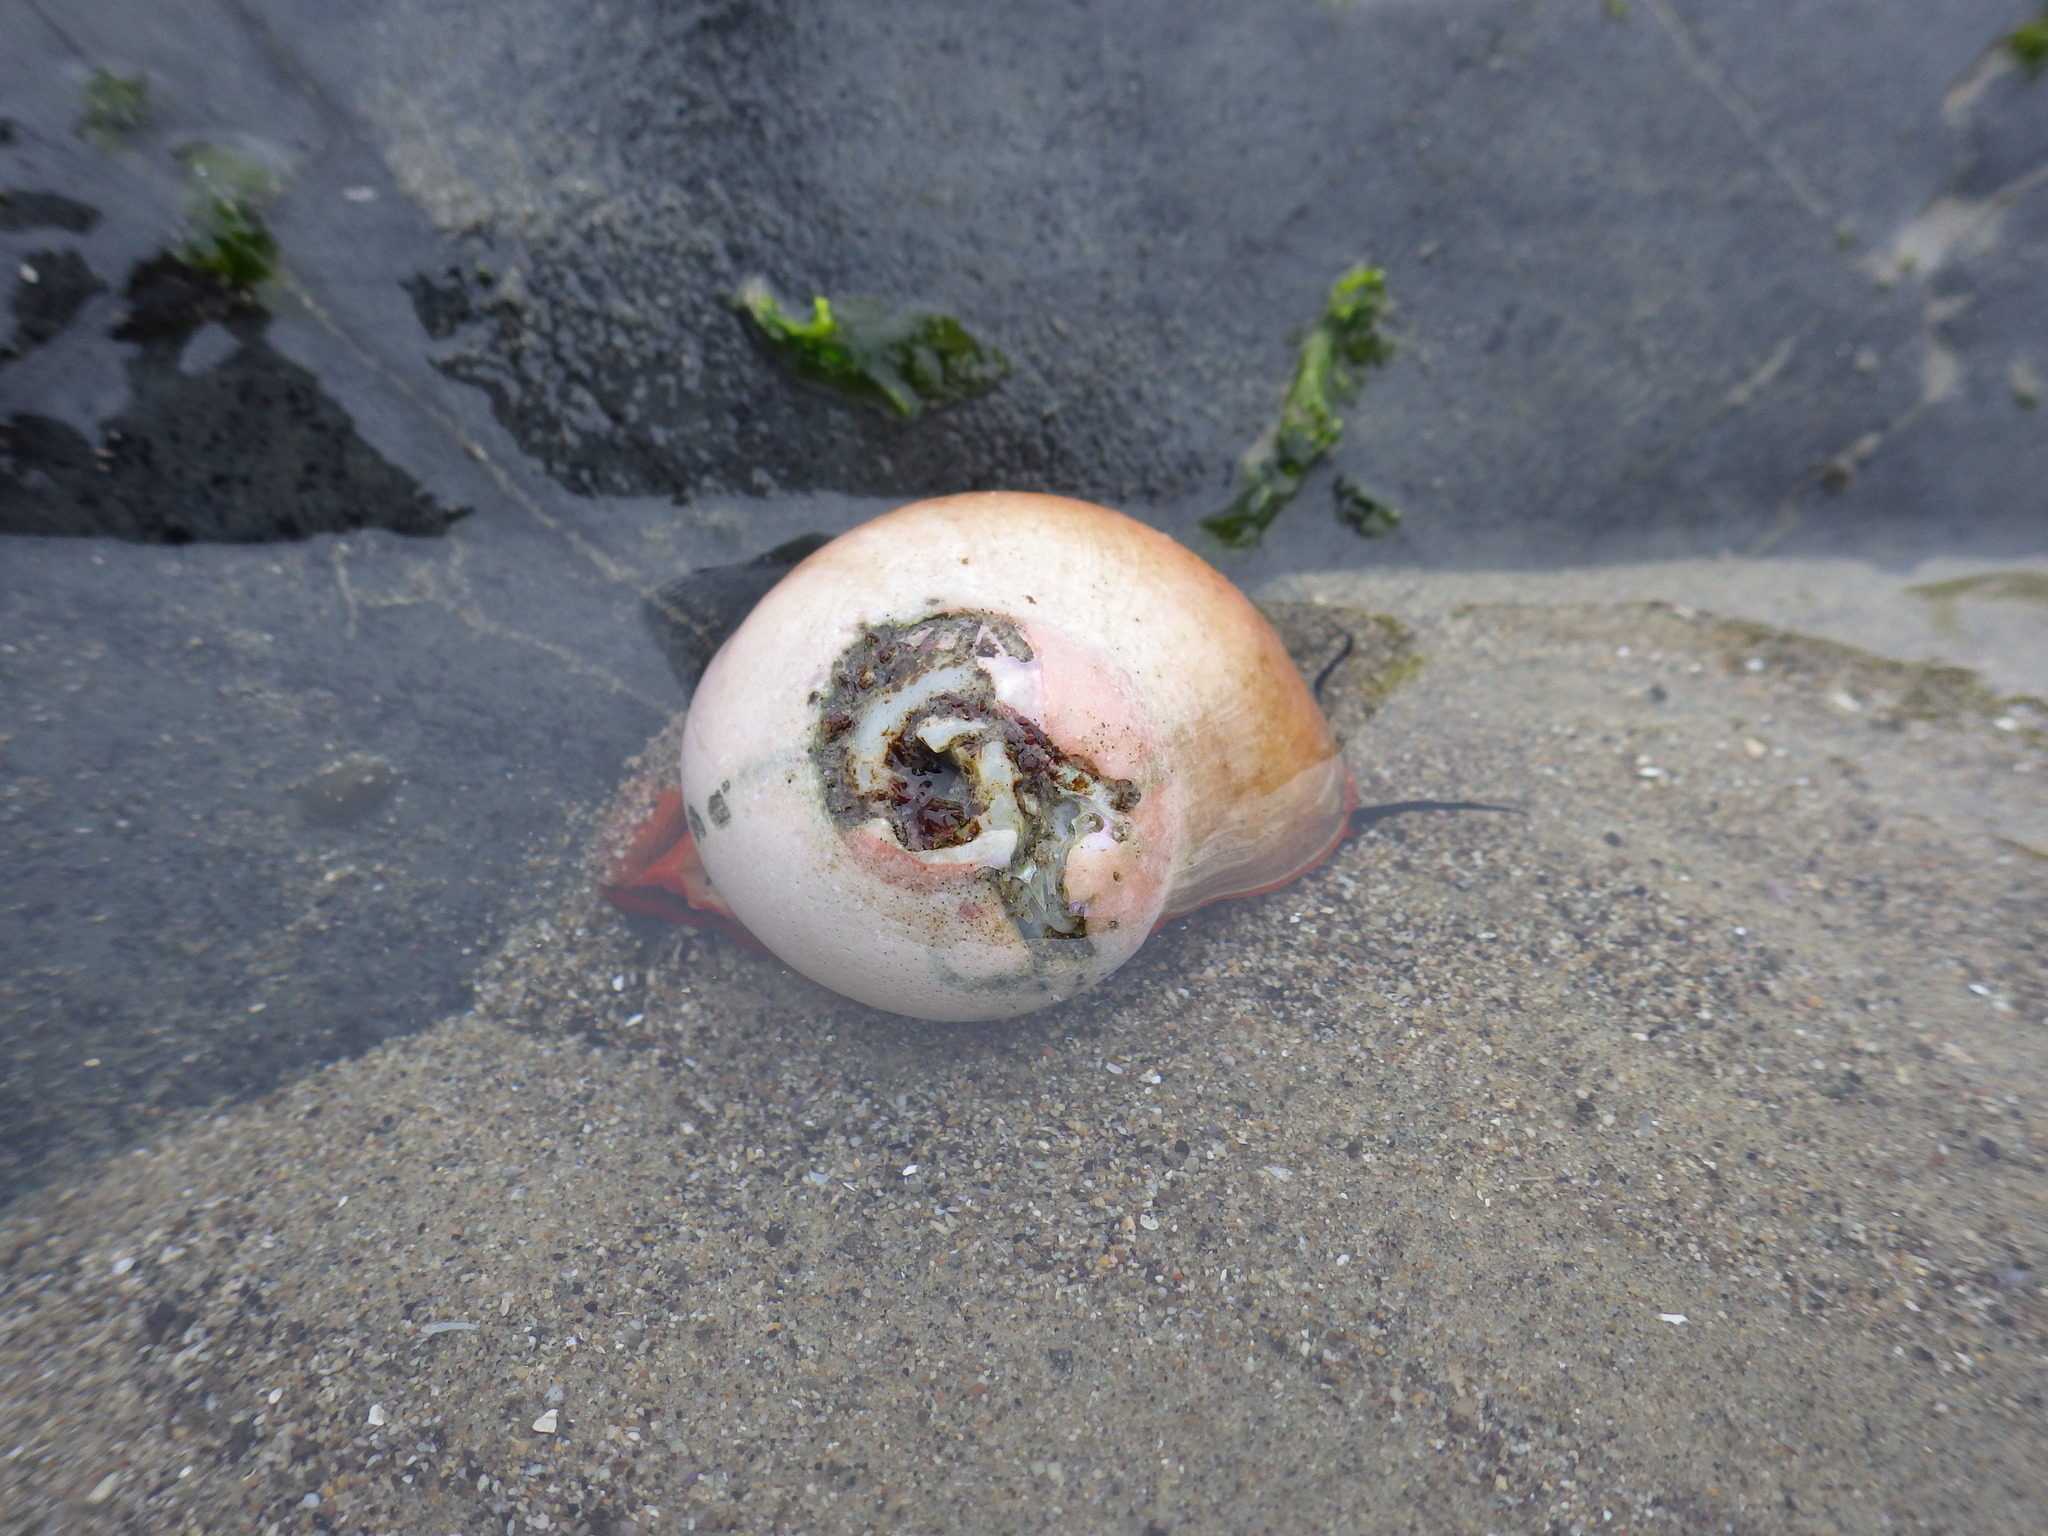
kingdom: Animalia
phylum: Mollusca
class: Gastropoda
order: Trochida
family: Tegulidae
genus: Norrisia
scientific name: Norrisia norrisii
